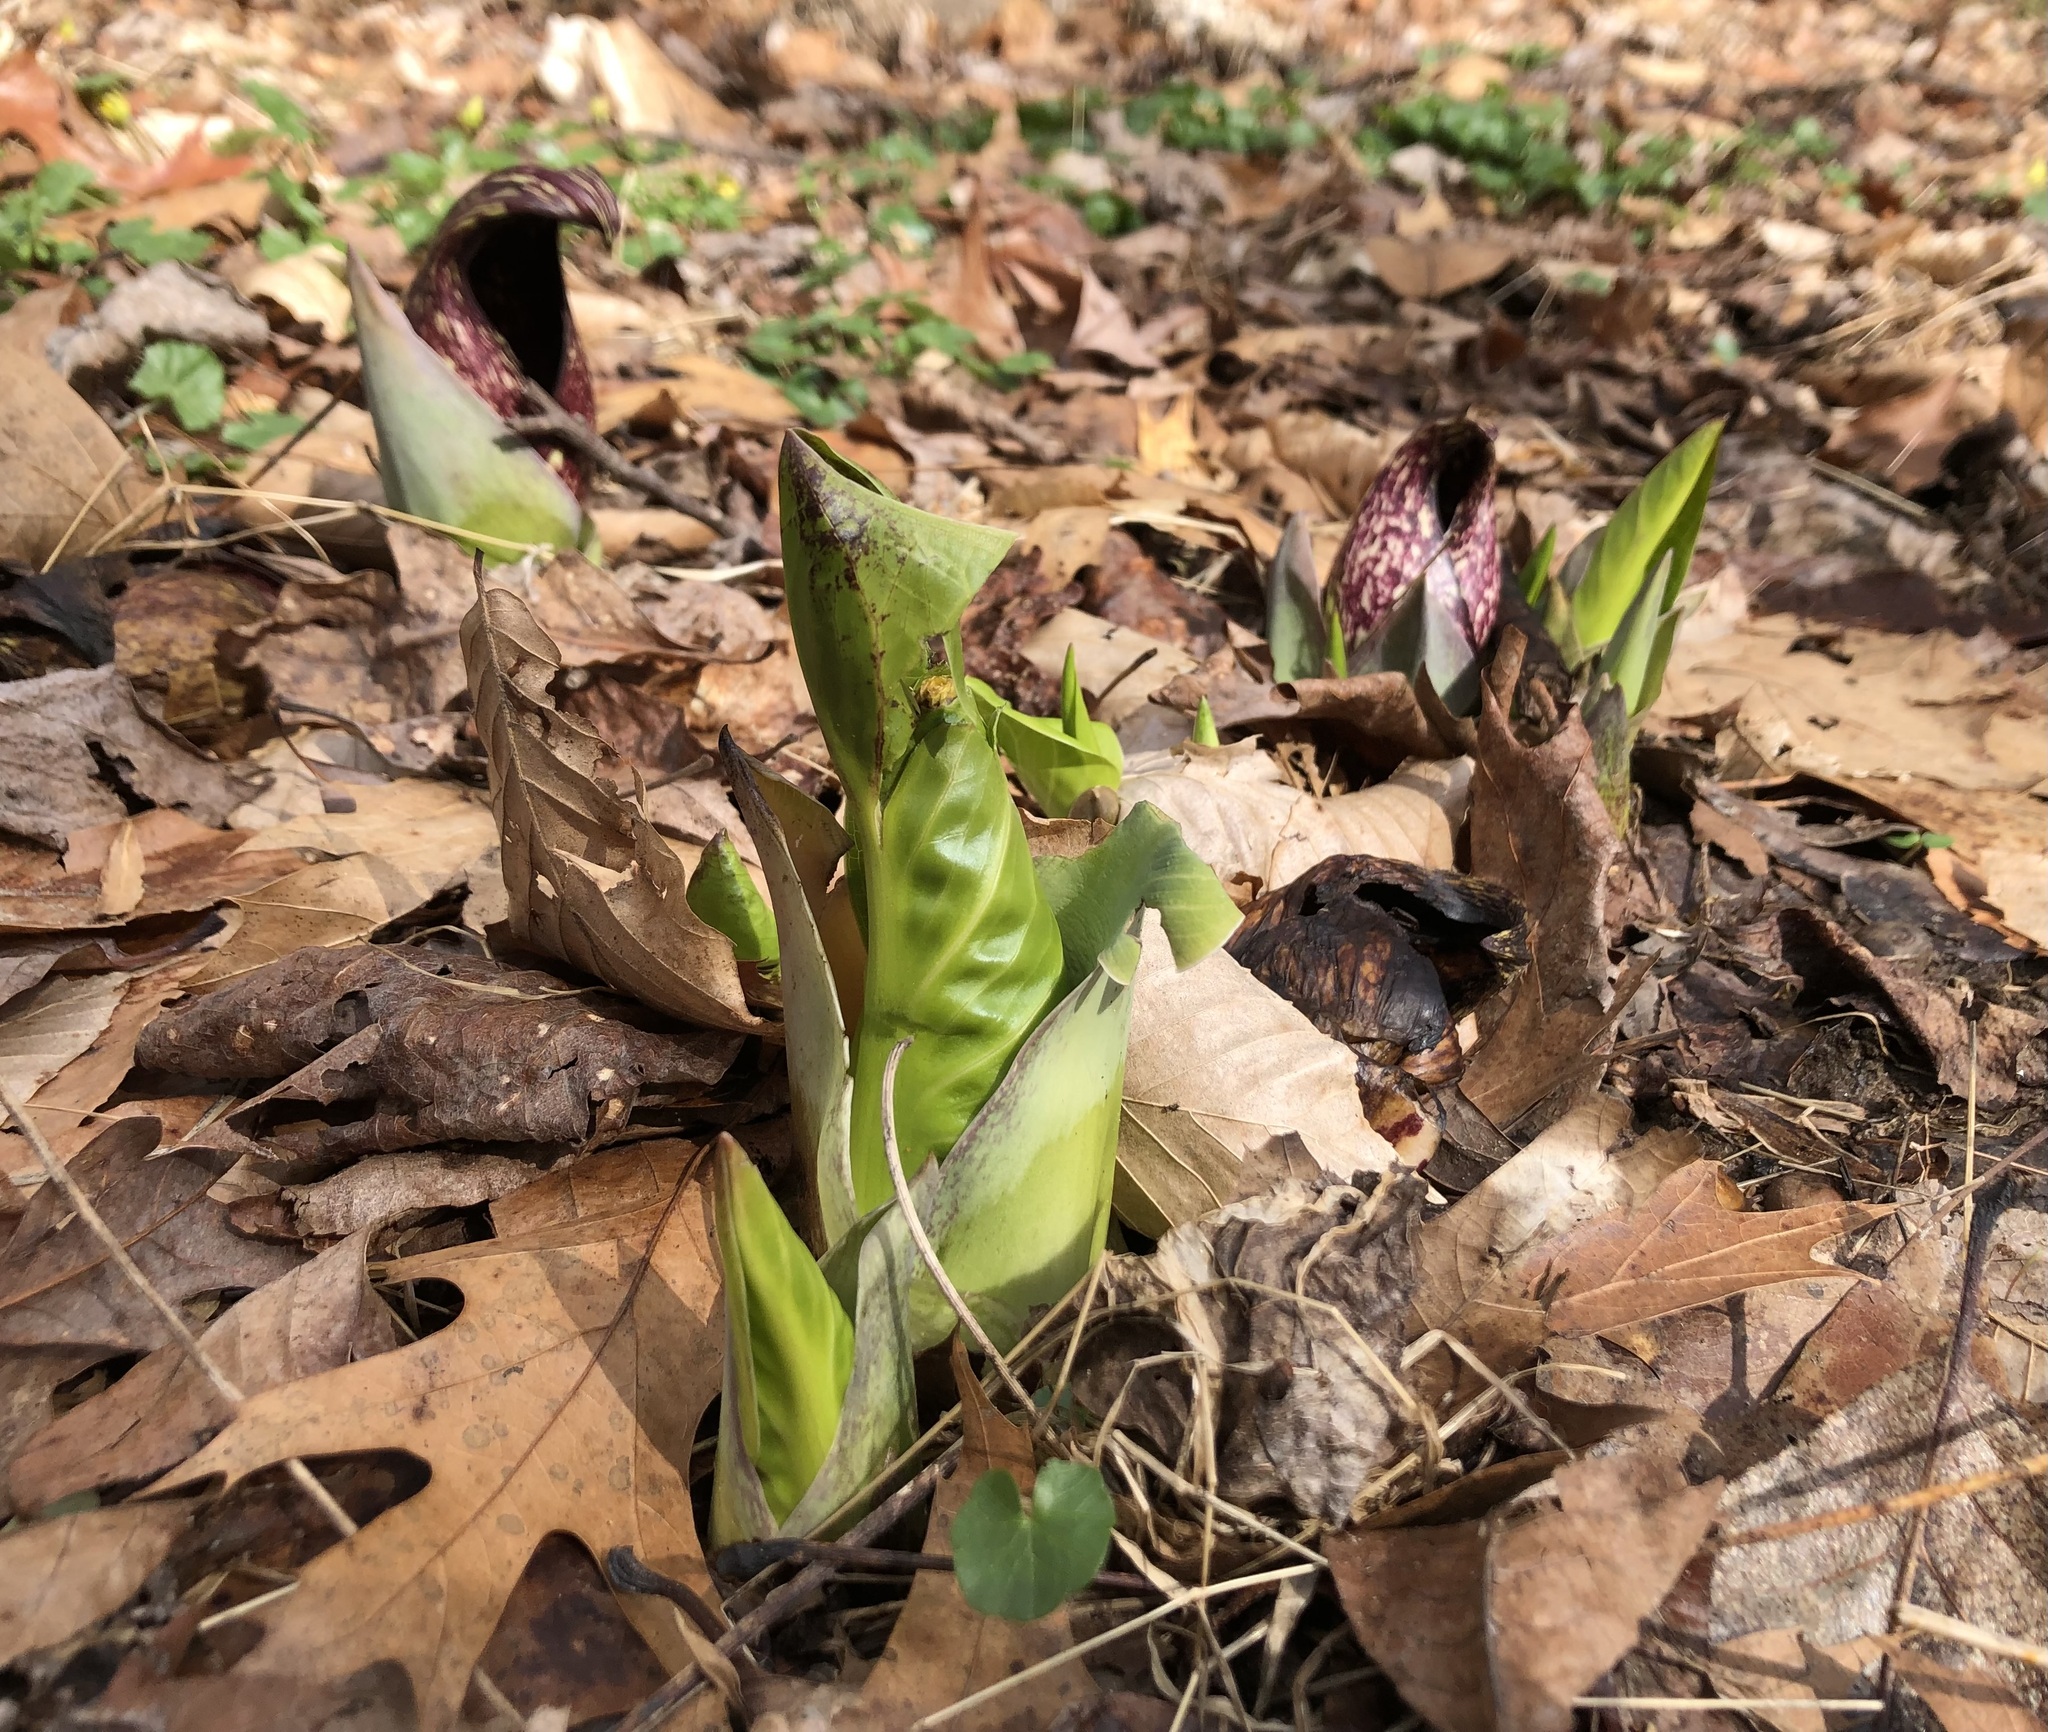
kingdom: Plantae
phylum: Tracheophyta
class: Liliopsida
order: Alismatales
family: Araceae
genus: Symplocarpus
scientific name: Symplocarpus foetidus
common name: Eastern skunk cabbage
